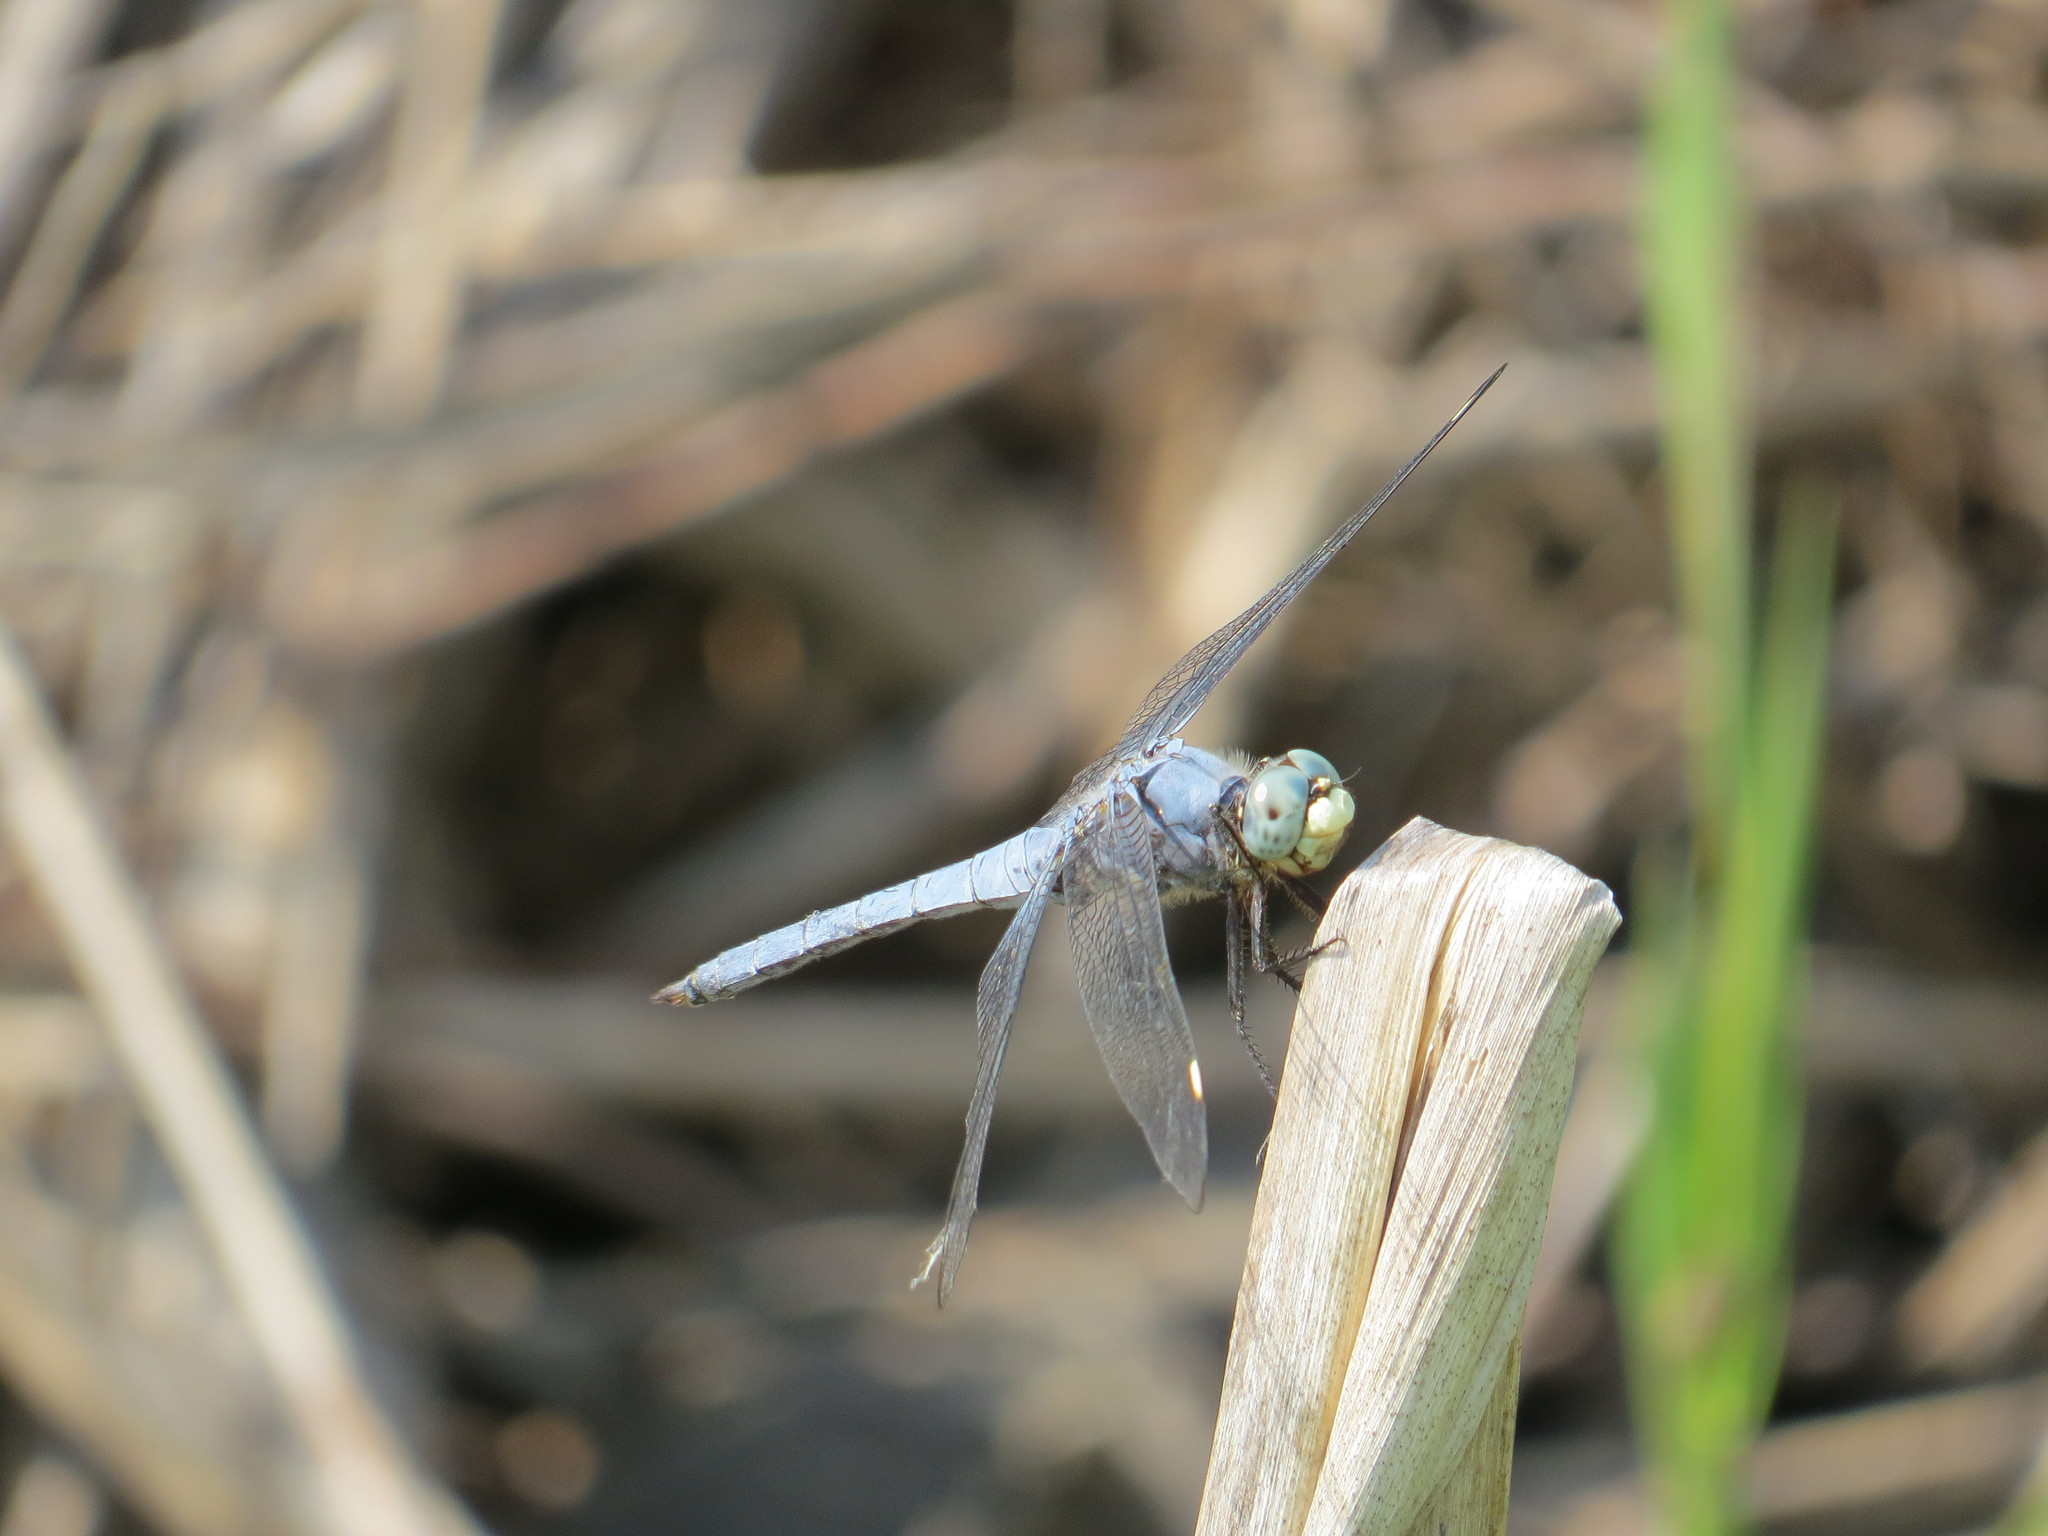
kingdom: Animalia
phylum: Arthropoda
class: Insecta
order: Odonata
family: Libellulidae
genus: Libellula
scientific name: Libellula comanche
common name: Comanche skimmer
